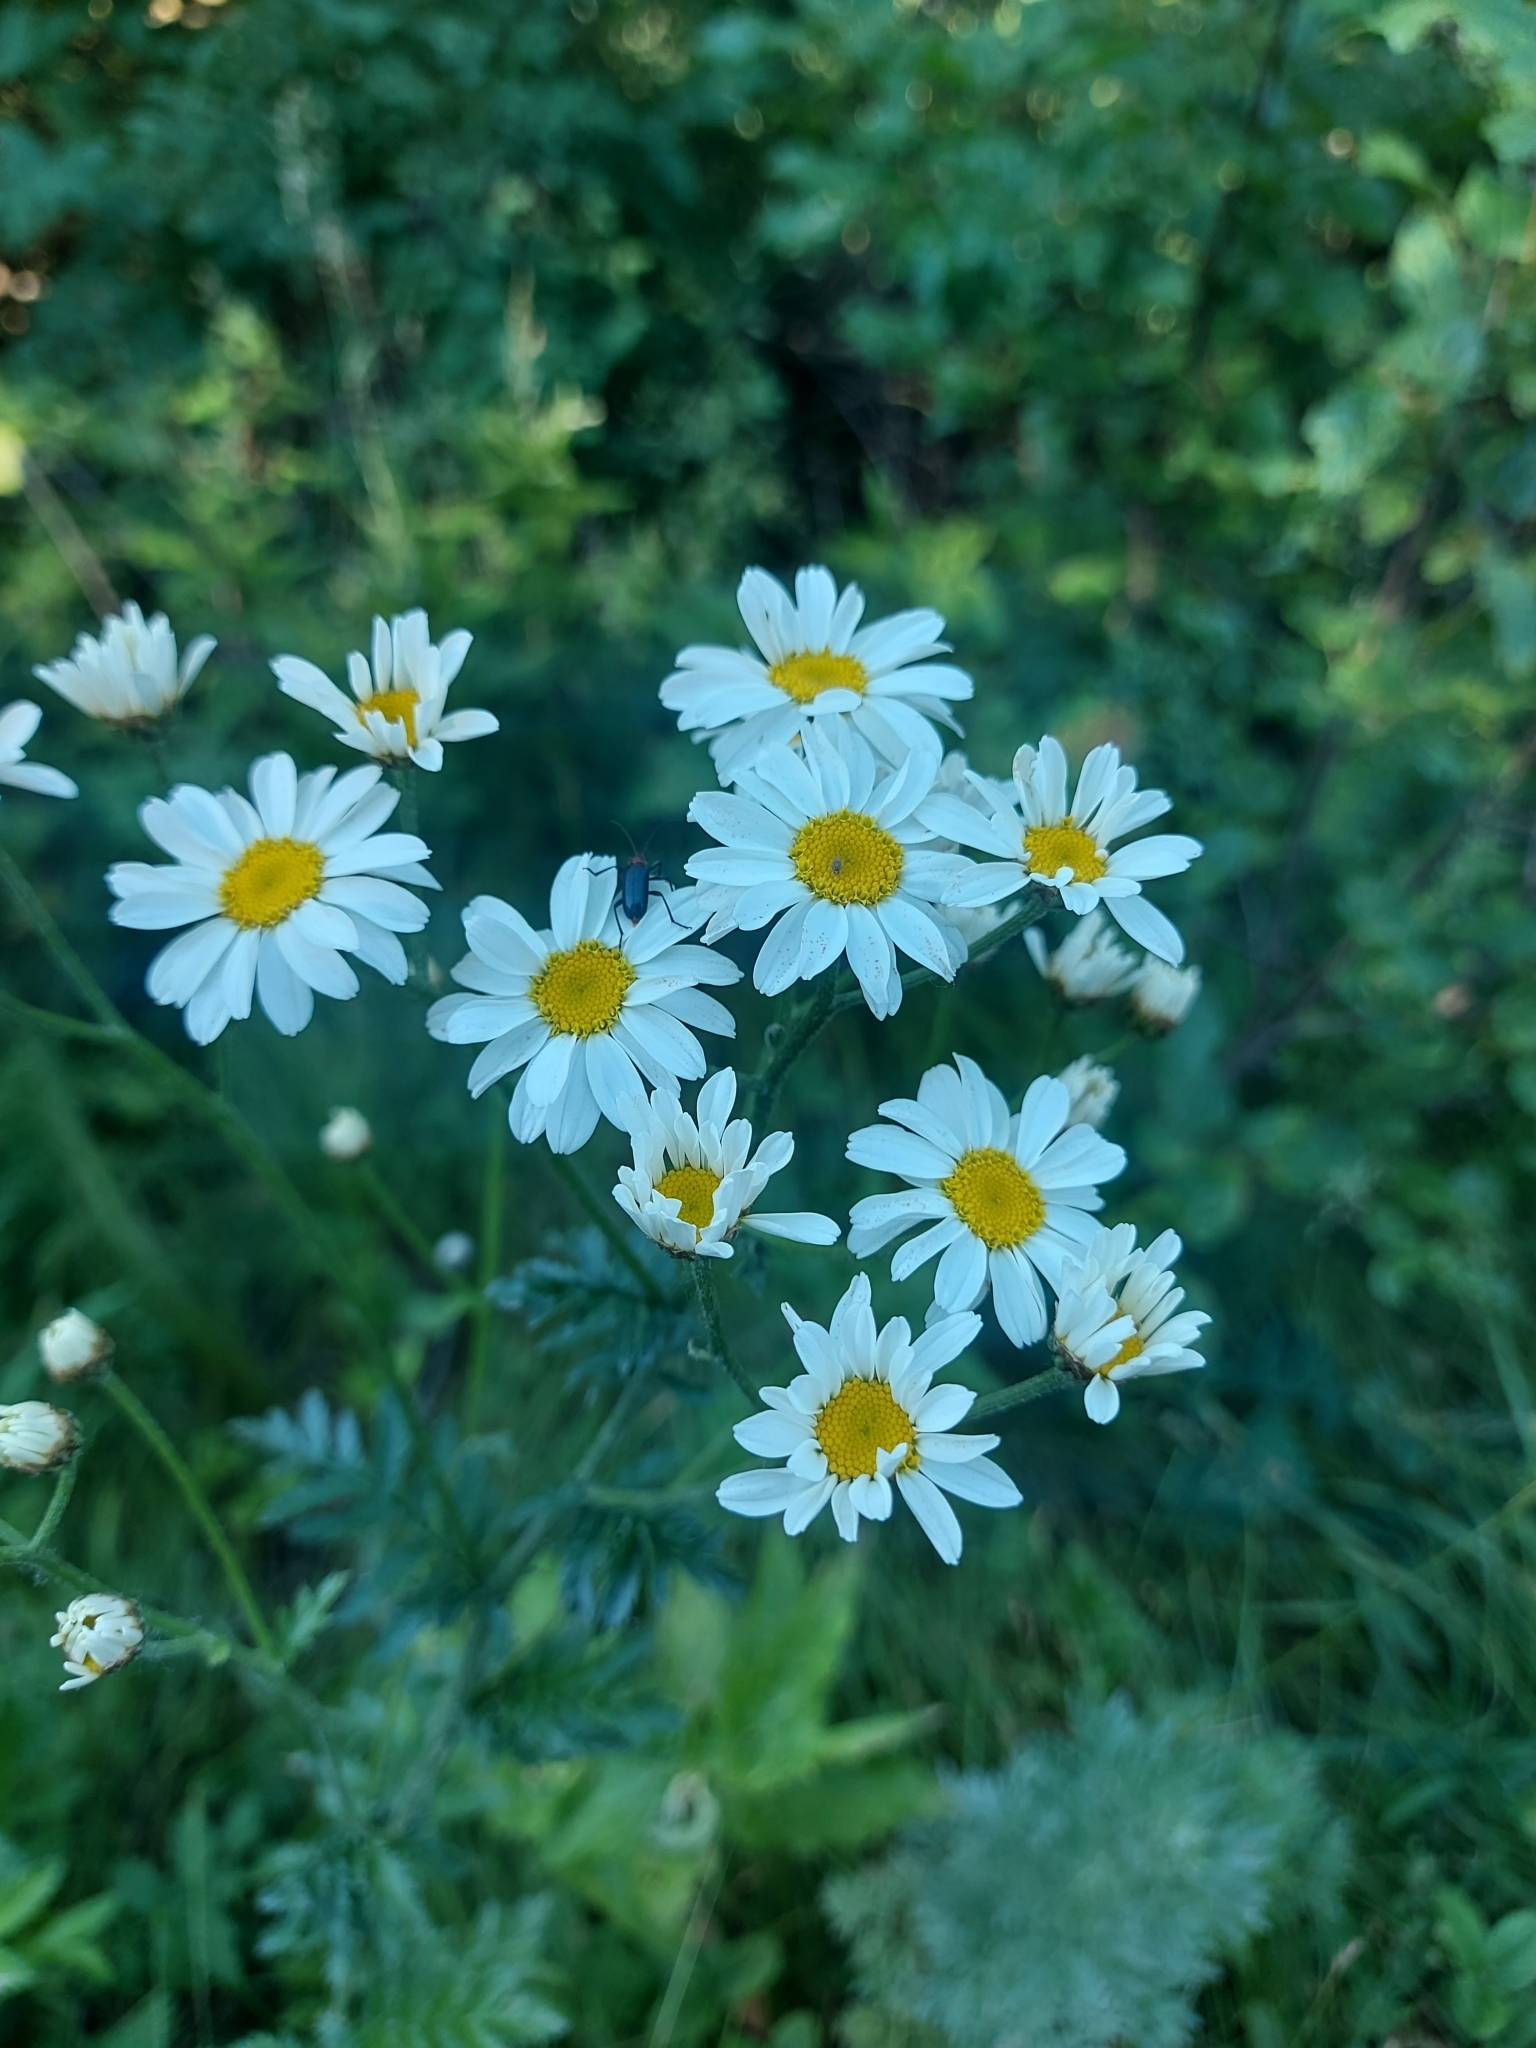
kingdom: Plantae
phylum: Tracheophyta
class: Magnoliopsida
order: Asterales
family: Asteraceae
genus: Tanacetum
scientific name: Tanacetum corymbosum
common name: Scentless feverfew
